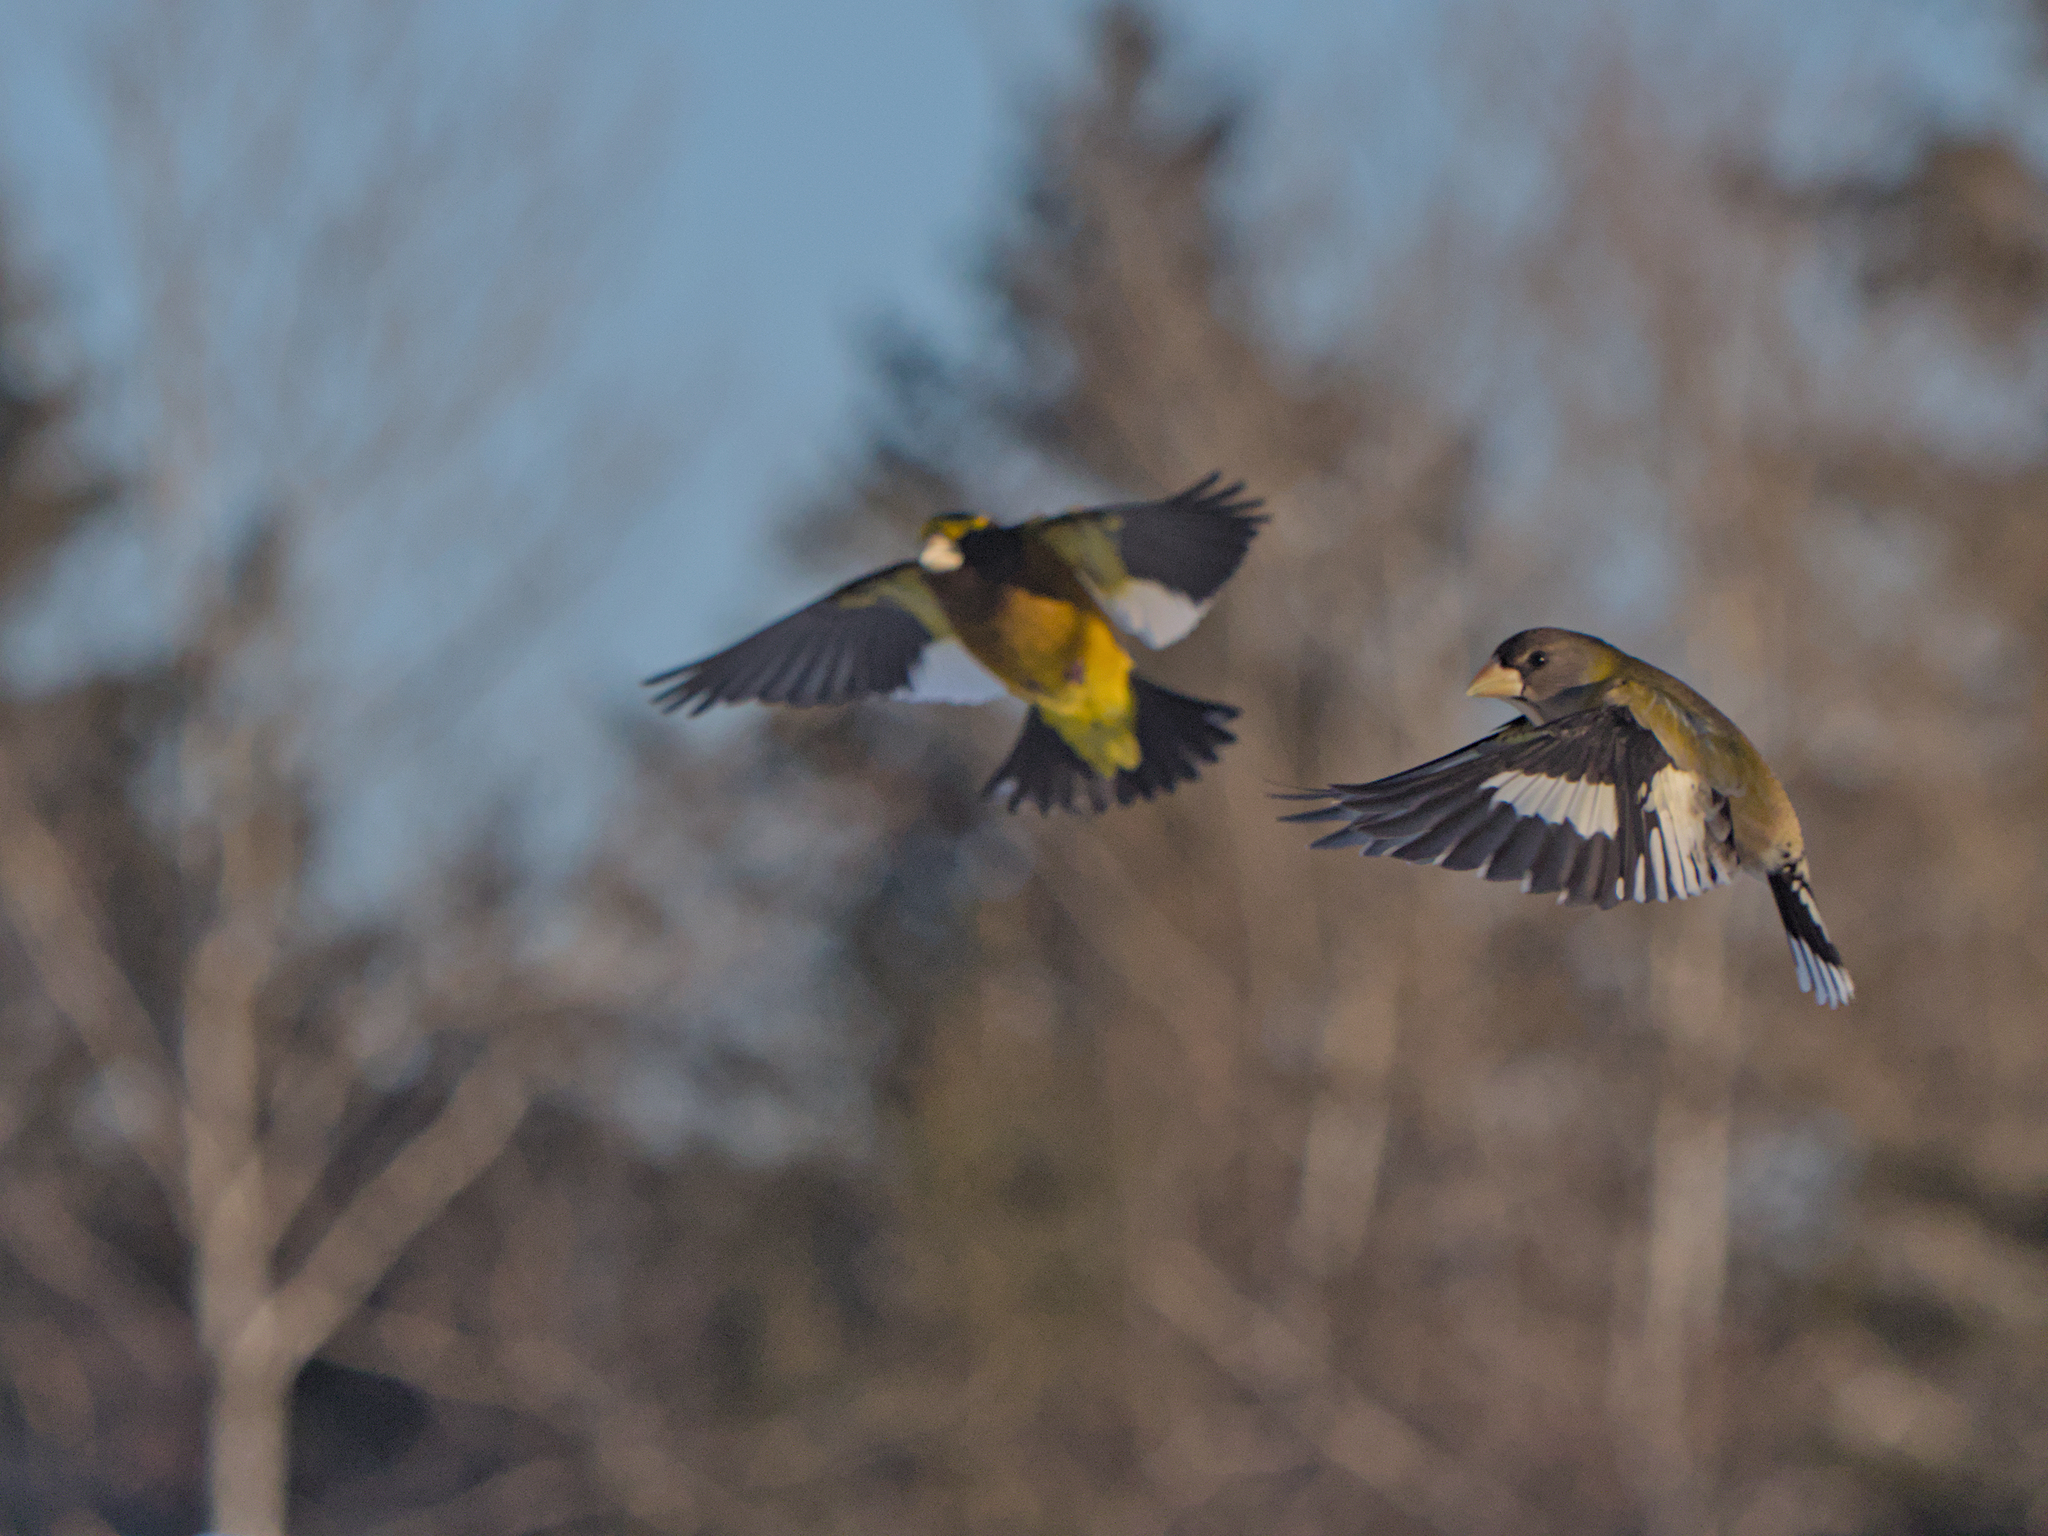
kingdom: Animalia
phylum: Chordata
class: Aves
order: Passeriformes
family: Fringillidae
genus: Hesperiphona
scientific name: Hesperiphona vespertina
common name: Evening grosbeak
